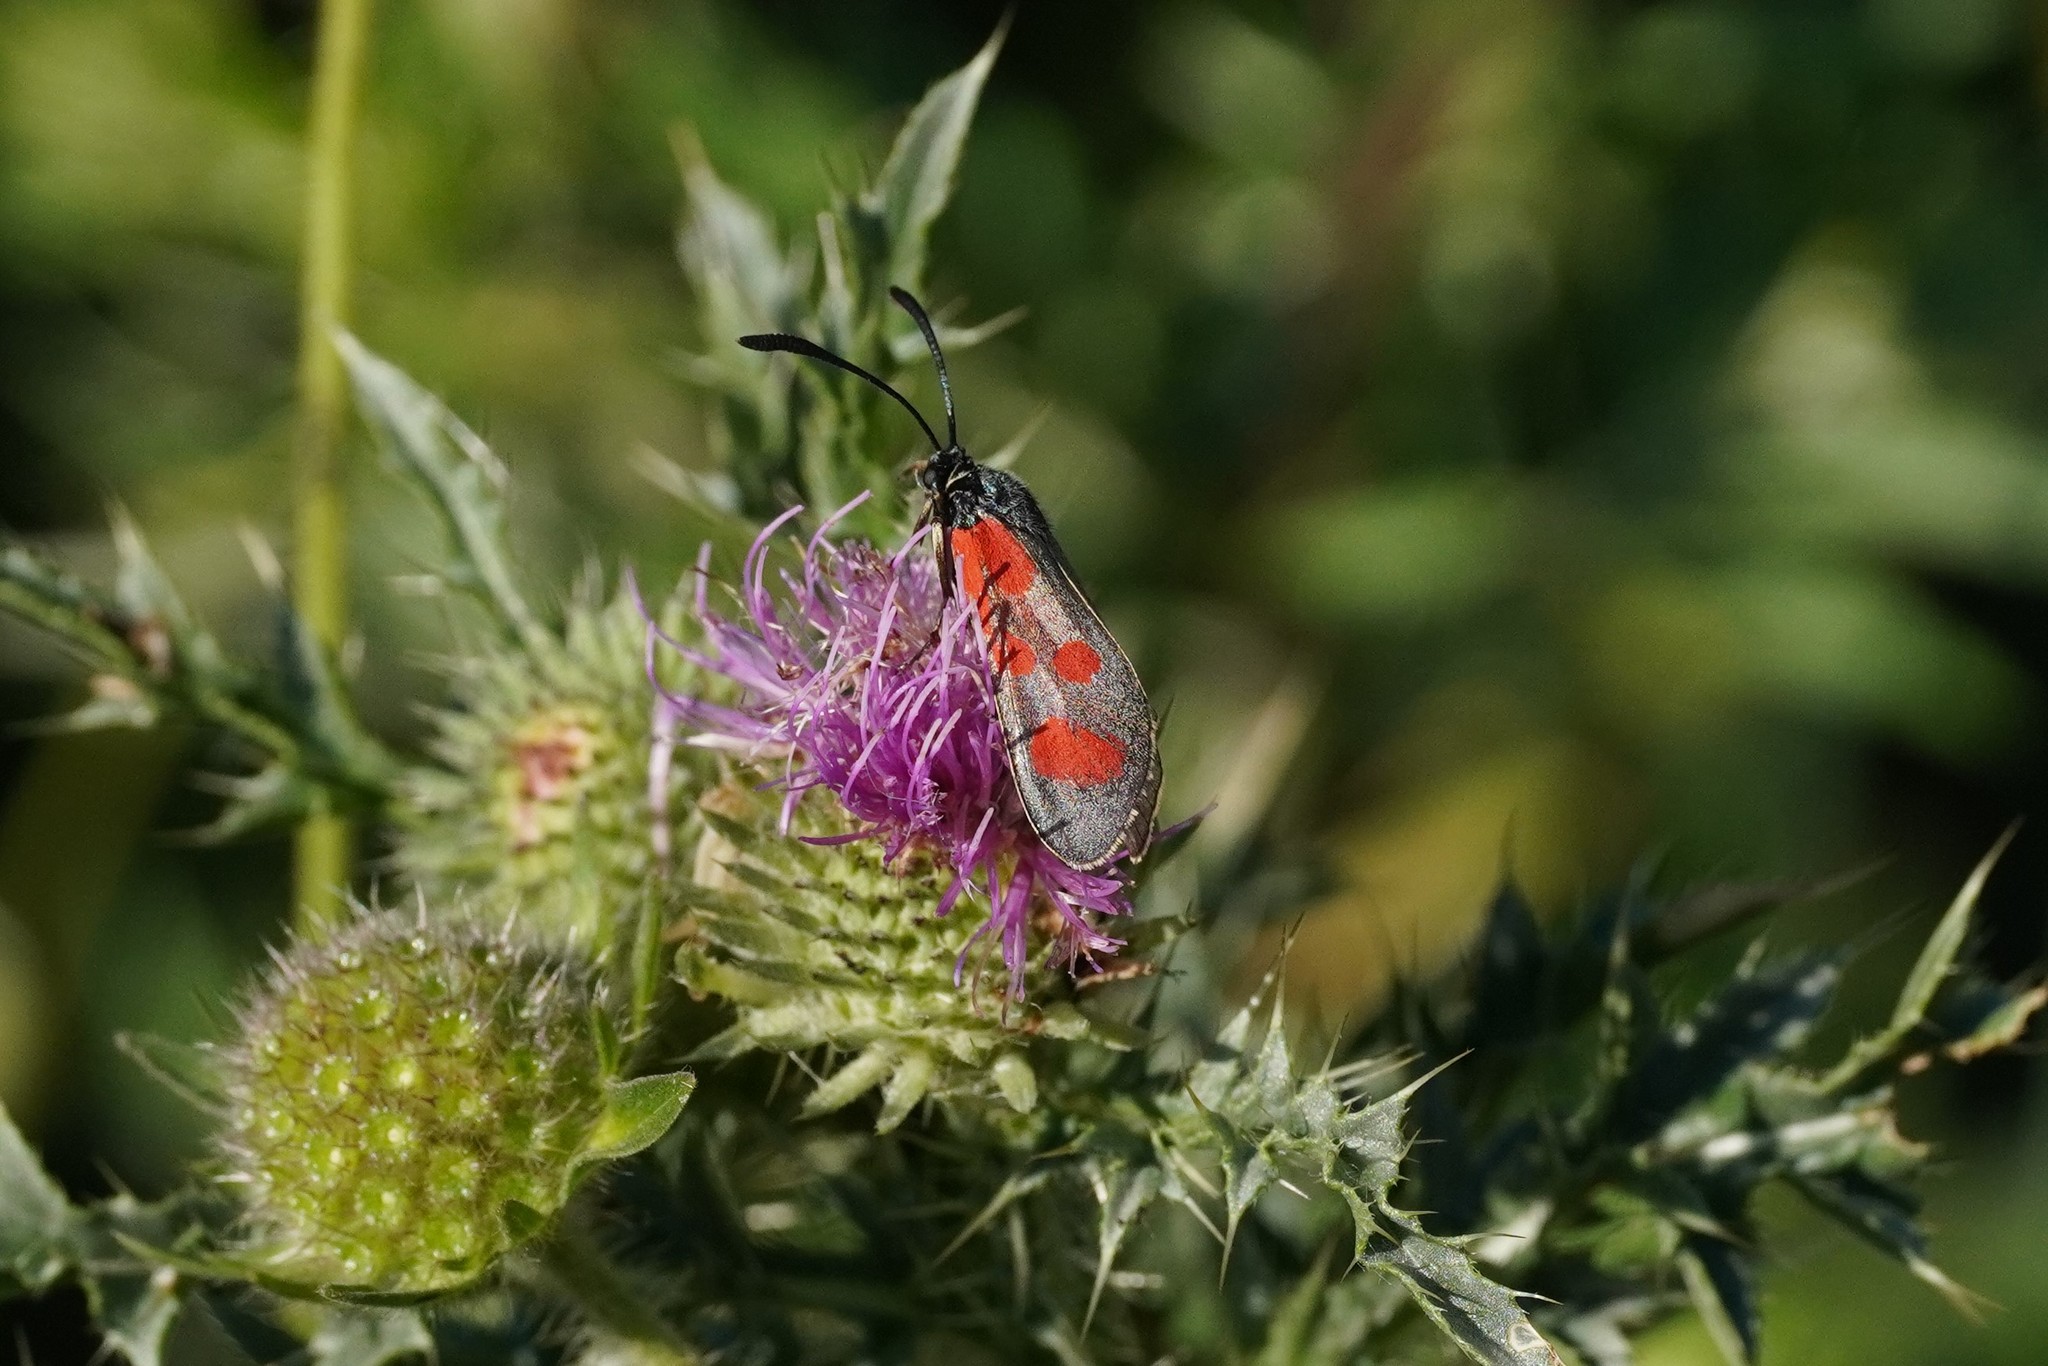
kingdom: Animalia
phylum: Arthropoda
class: Insecta
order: Lepidoptera
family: Zygaenidae
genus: Zygaena
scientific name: Zygaena loti
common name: Slender scotch burnet
